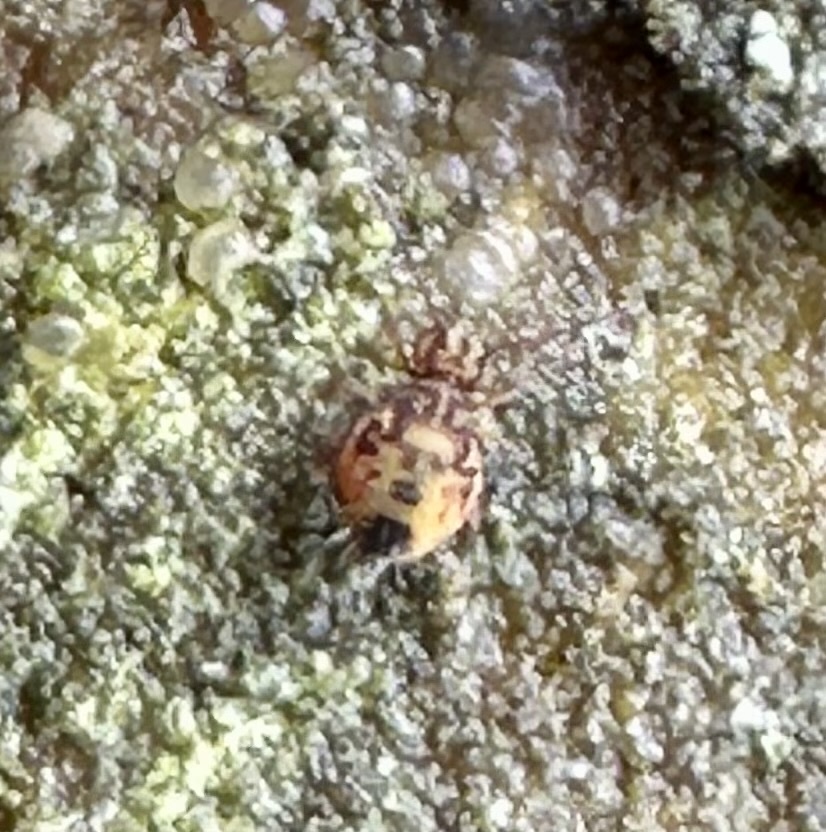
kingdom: Animalia
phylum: Arthropoda
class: Collembola
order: Symphypleona
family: Dicyrtomidae
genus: Dicyrtomina
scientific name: Dicyrtomina ornata
